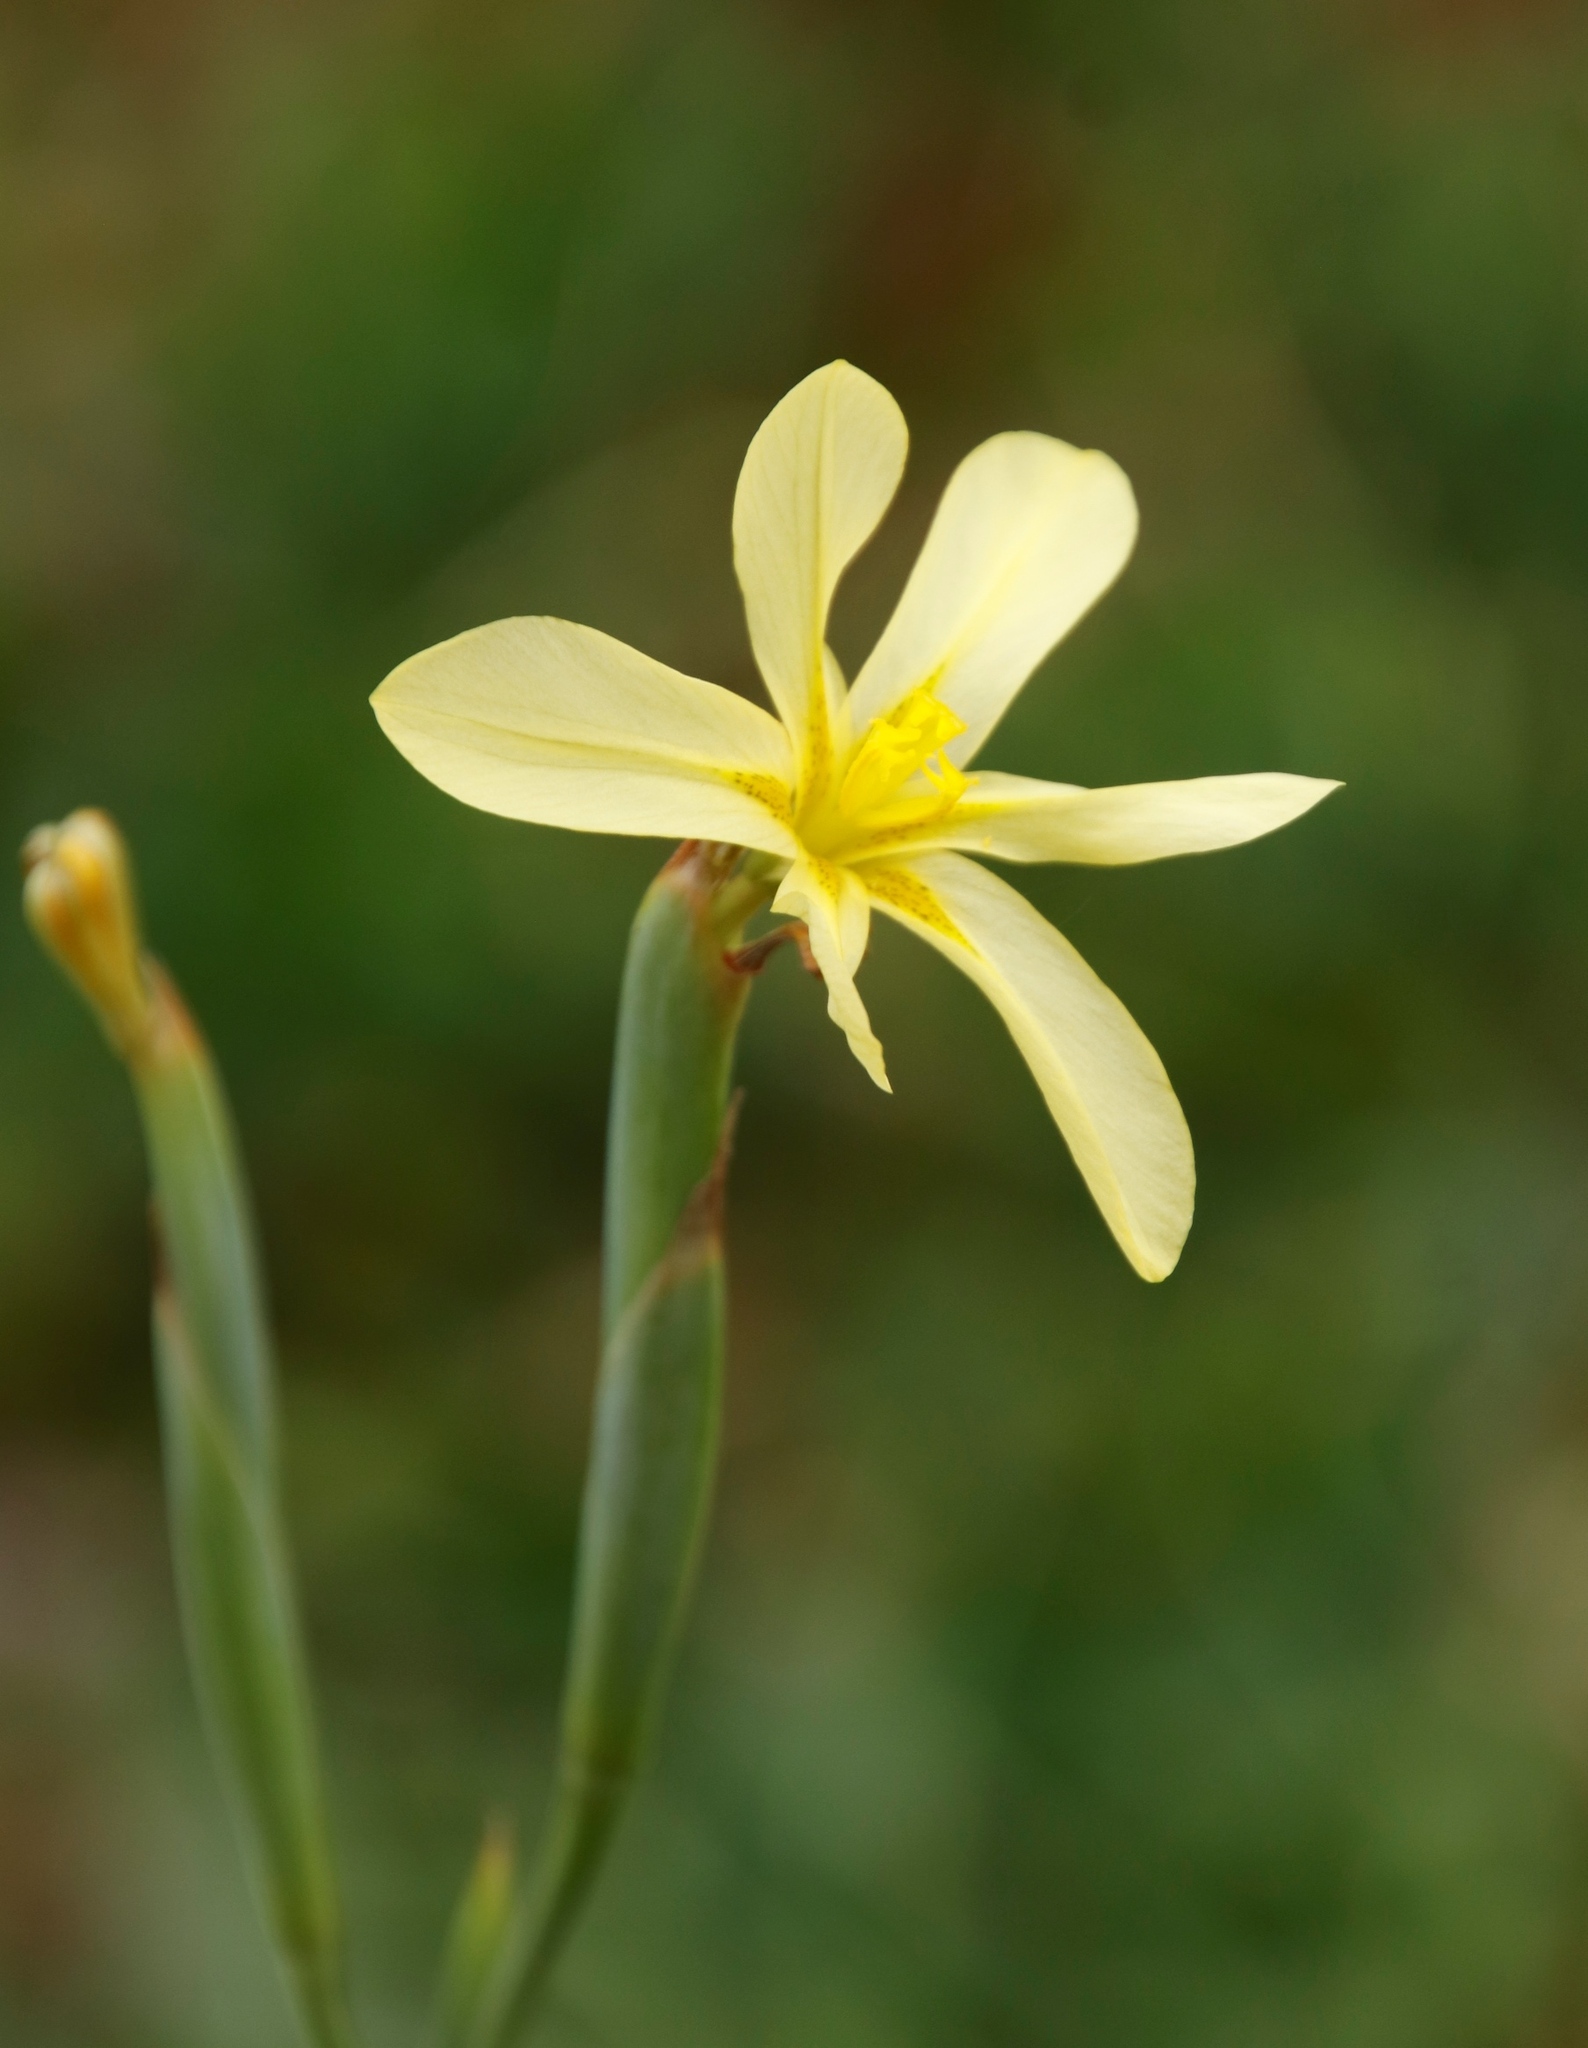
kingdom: Plantae
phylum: Tracheophyta
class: Liliopsida
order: Asparagales
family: Iridaceae
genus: Moraea
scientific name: Moraea cookii
